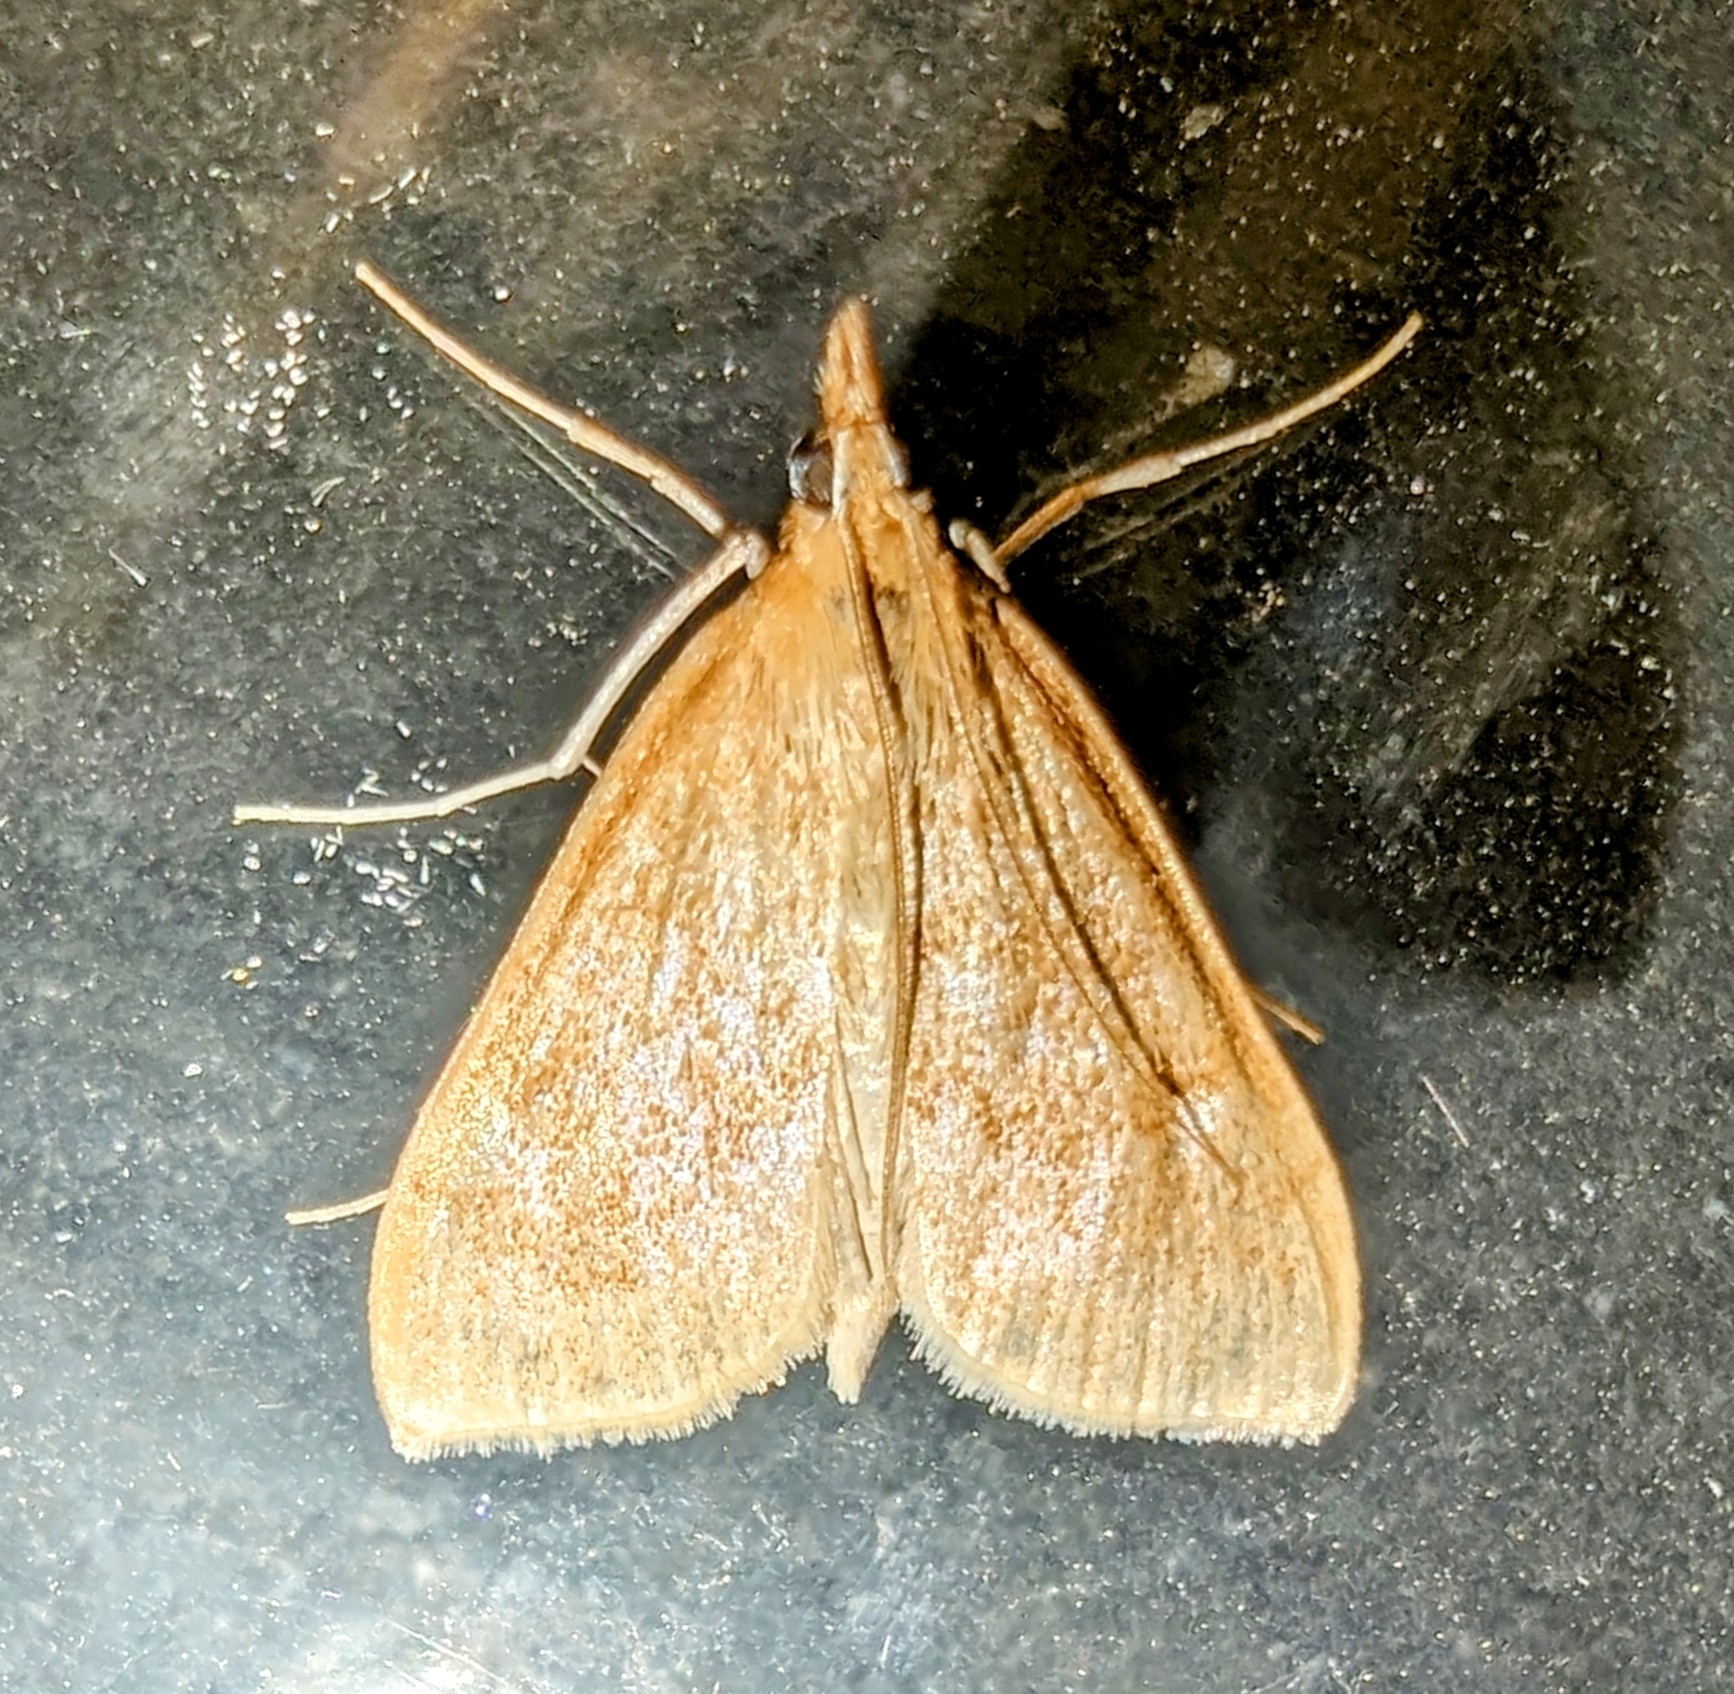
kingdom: Animalia
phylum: Arthropoda
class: Insecta
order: Lepidoptera
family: Crambidae
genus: Saucrobotys
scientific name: Saucrobotys futilalis
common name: Dogbane saucrobotys moth
